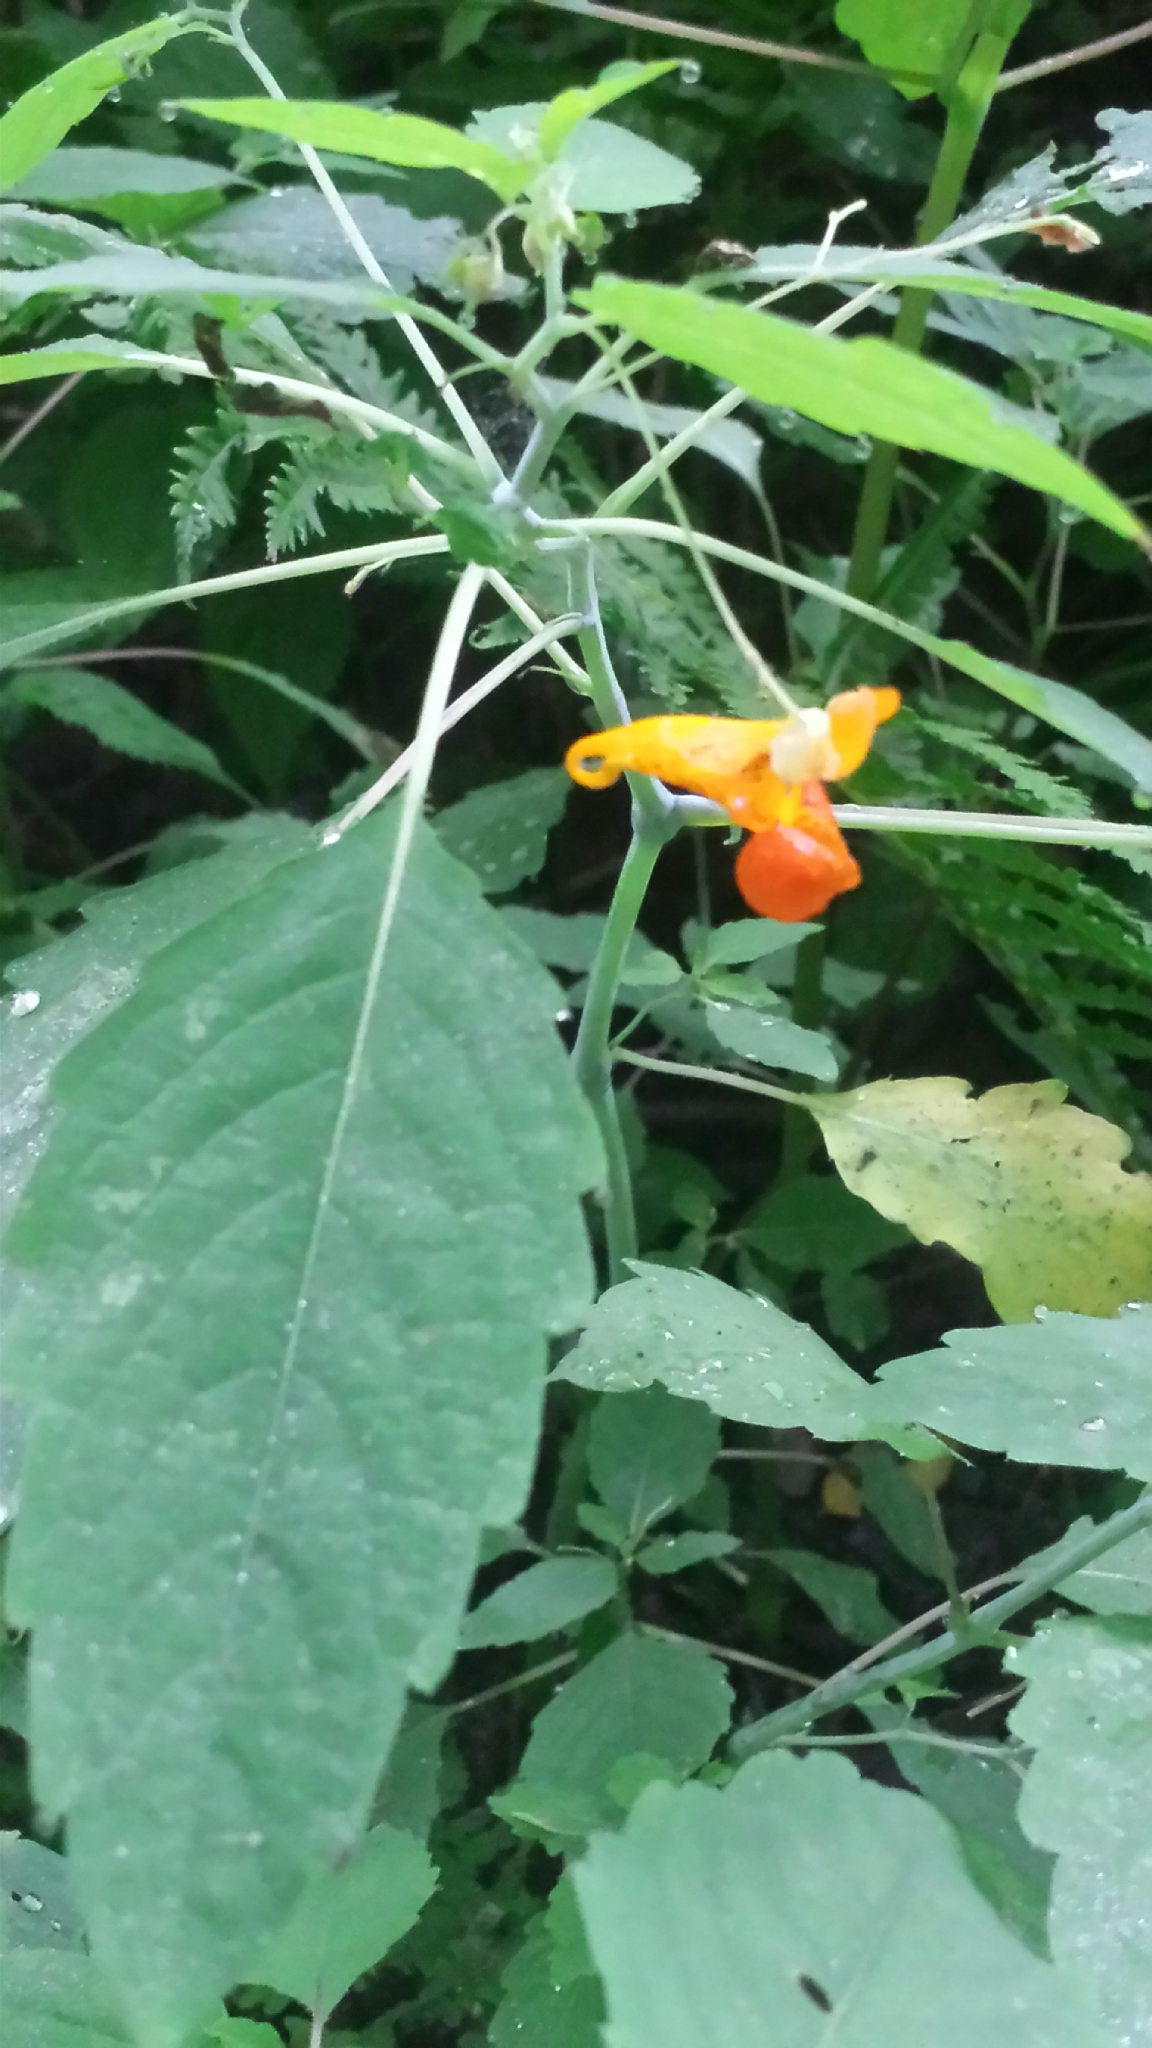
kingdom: Plantae
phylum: Tracheophyta
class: Magnoliopsida
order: Ericales
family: Balsaminaceae
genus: Impatiens
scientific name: Impatiens capensis
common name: Orange balsam
